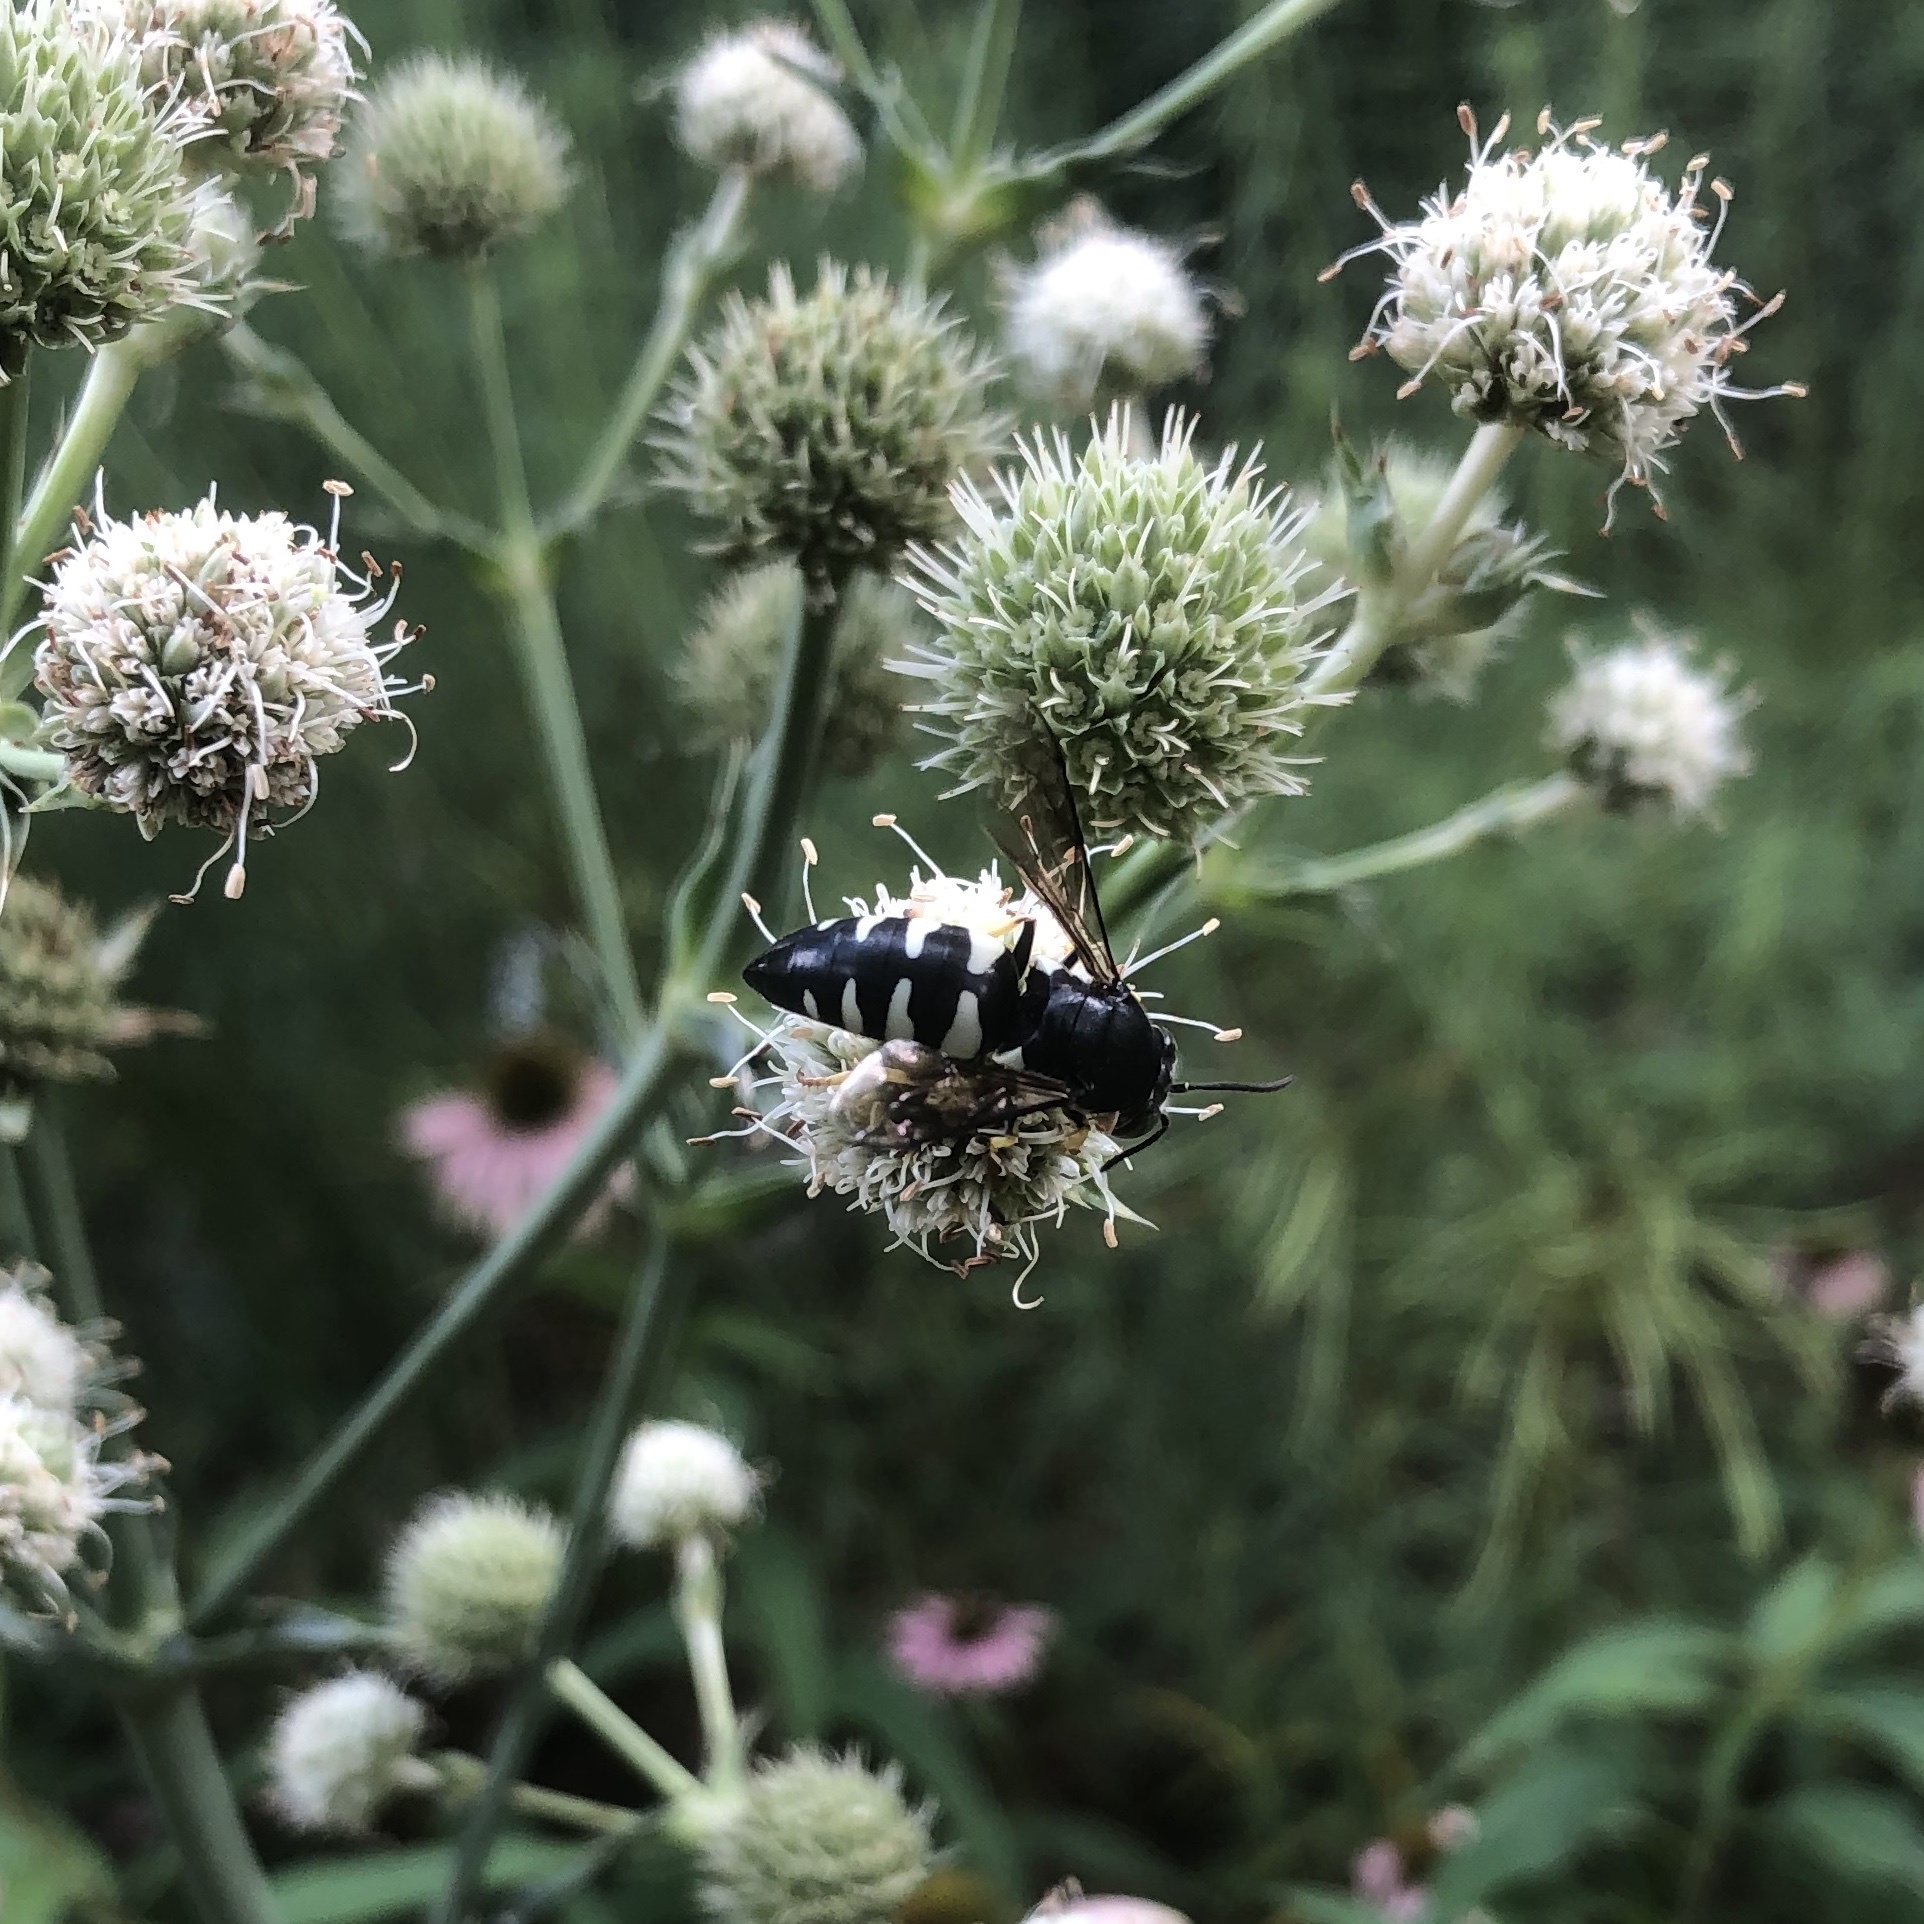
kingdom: Animalia
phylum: Arthropoda
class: Insecta
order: Hymenoptera
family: Crabronidae
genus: Bicyrtes
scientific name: Bicyrtes quadrifasciatus
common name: Four-banded stink bug hunter wasp
